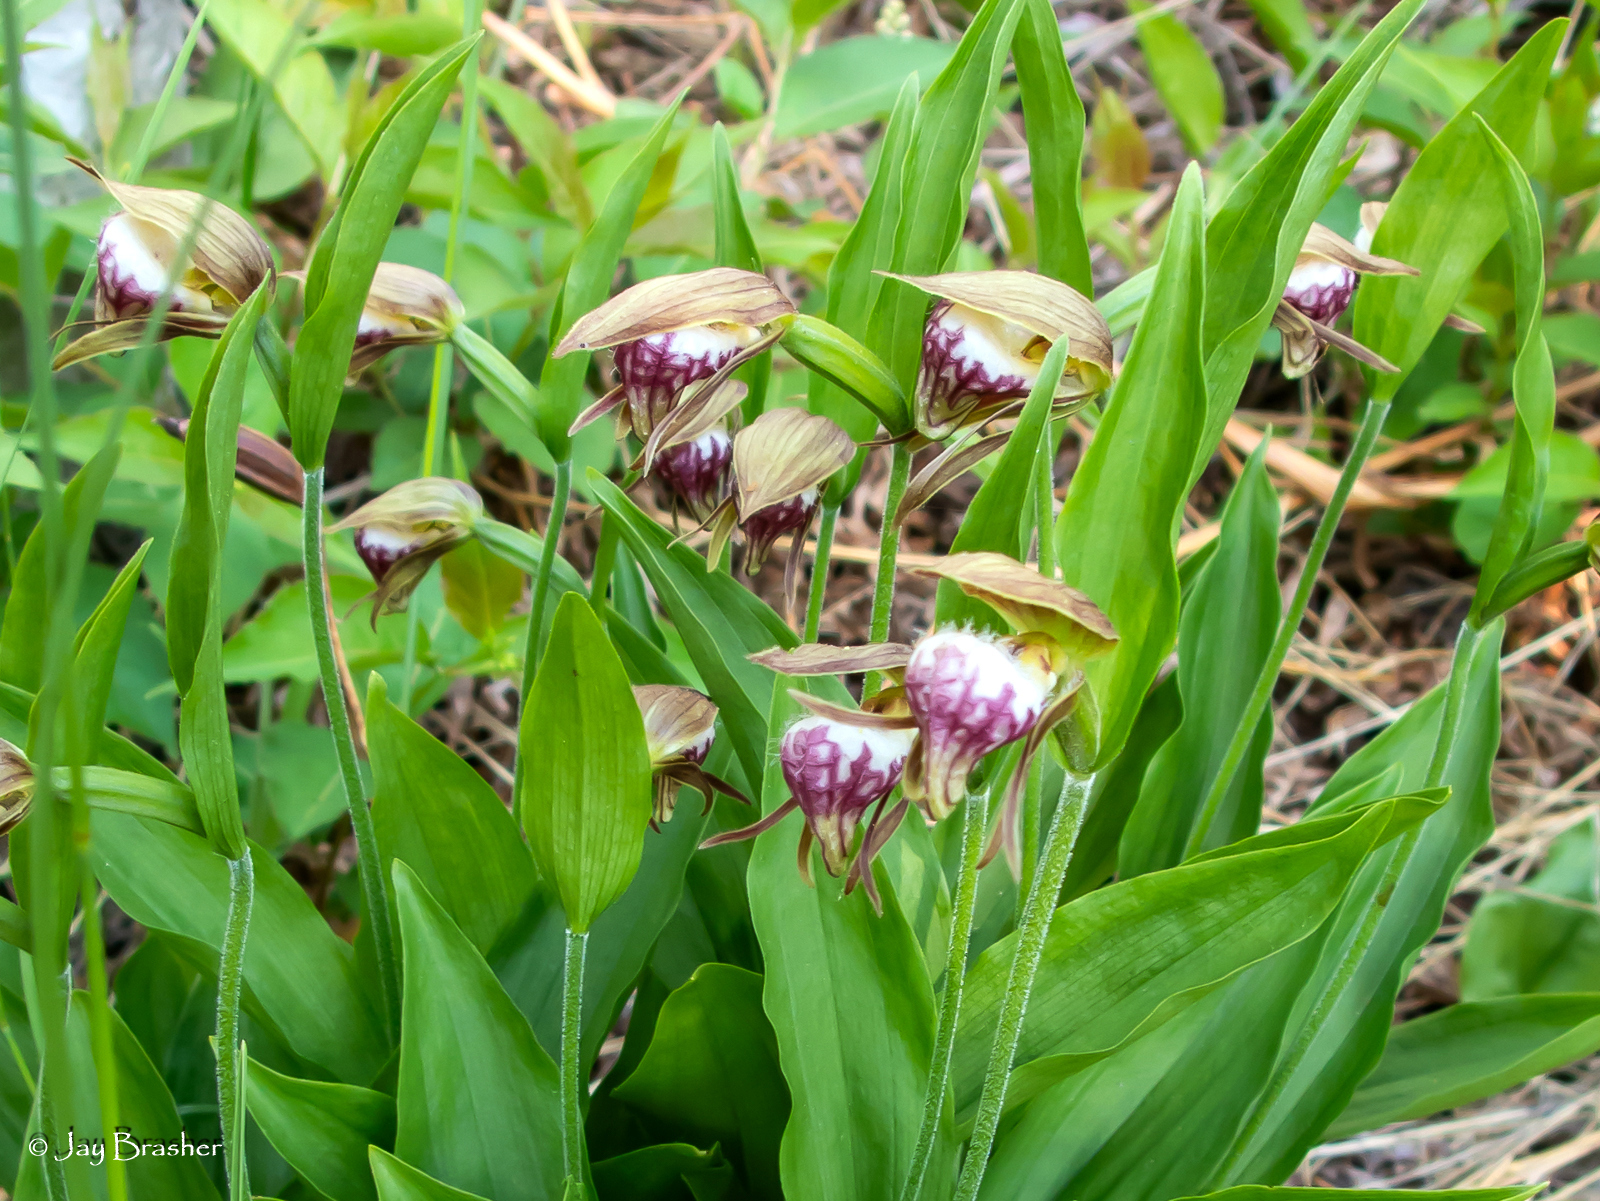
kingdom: Plantae
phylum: Tracheophyta
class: Liliopsida
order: Asparagales
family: Orchidaceae
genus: Cypripedium
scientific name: Cypripedium arietinum
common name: Ram's-head
